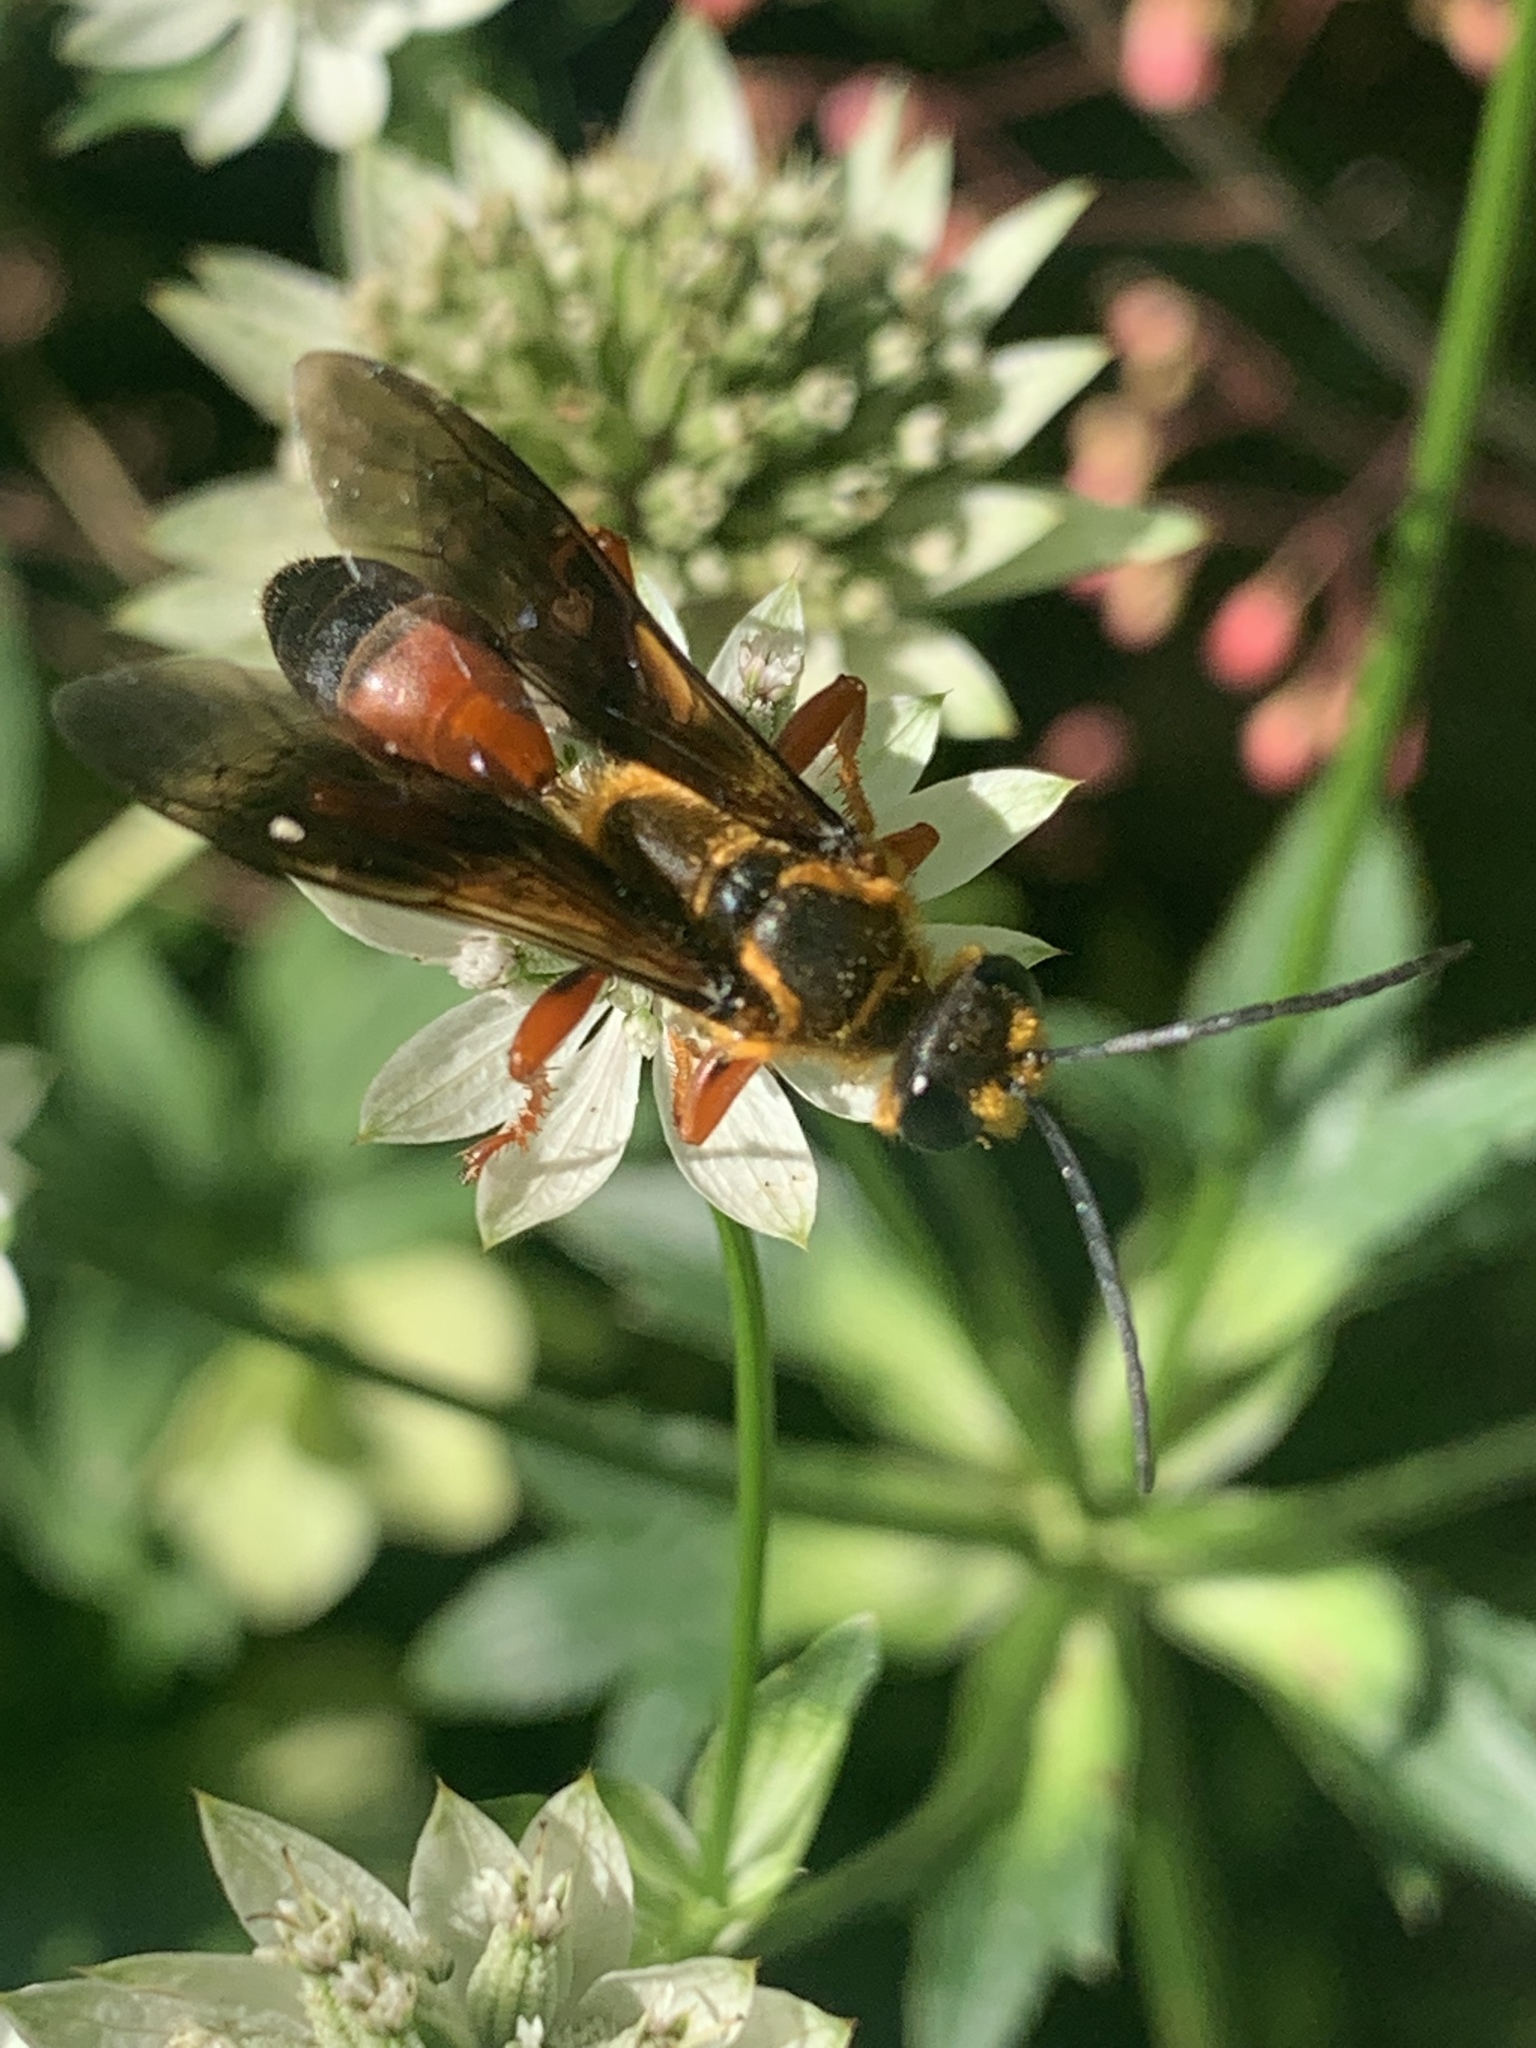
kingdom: Animalia
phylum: Arthropoda
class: Insecta
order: Hymenoptera
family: Sphecidae
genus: Sphex
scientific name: Sphex ichneumoneus
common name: Great golden digger wasp
